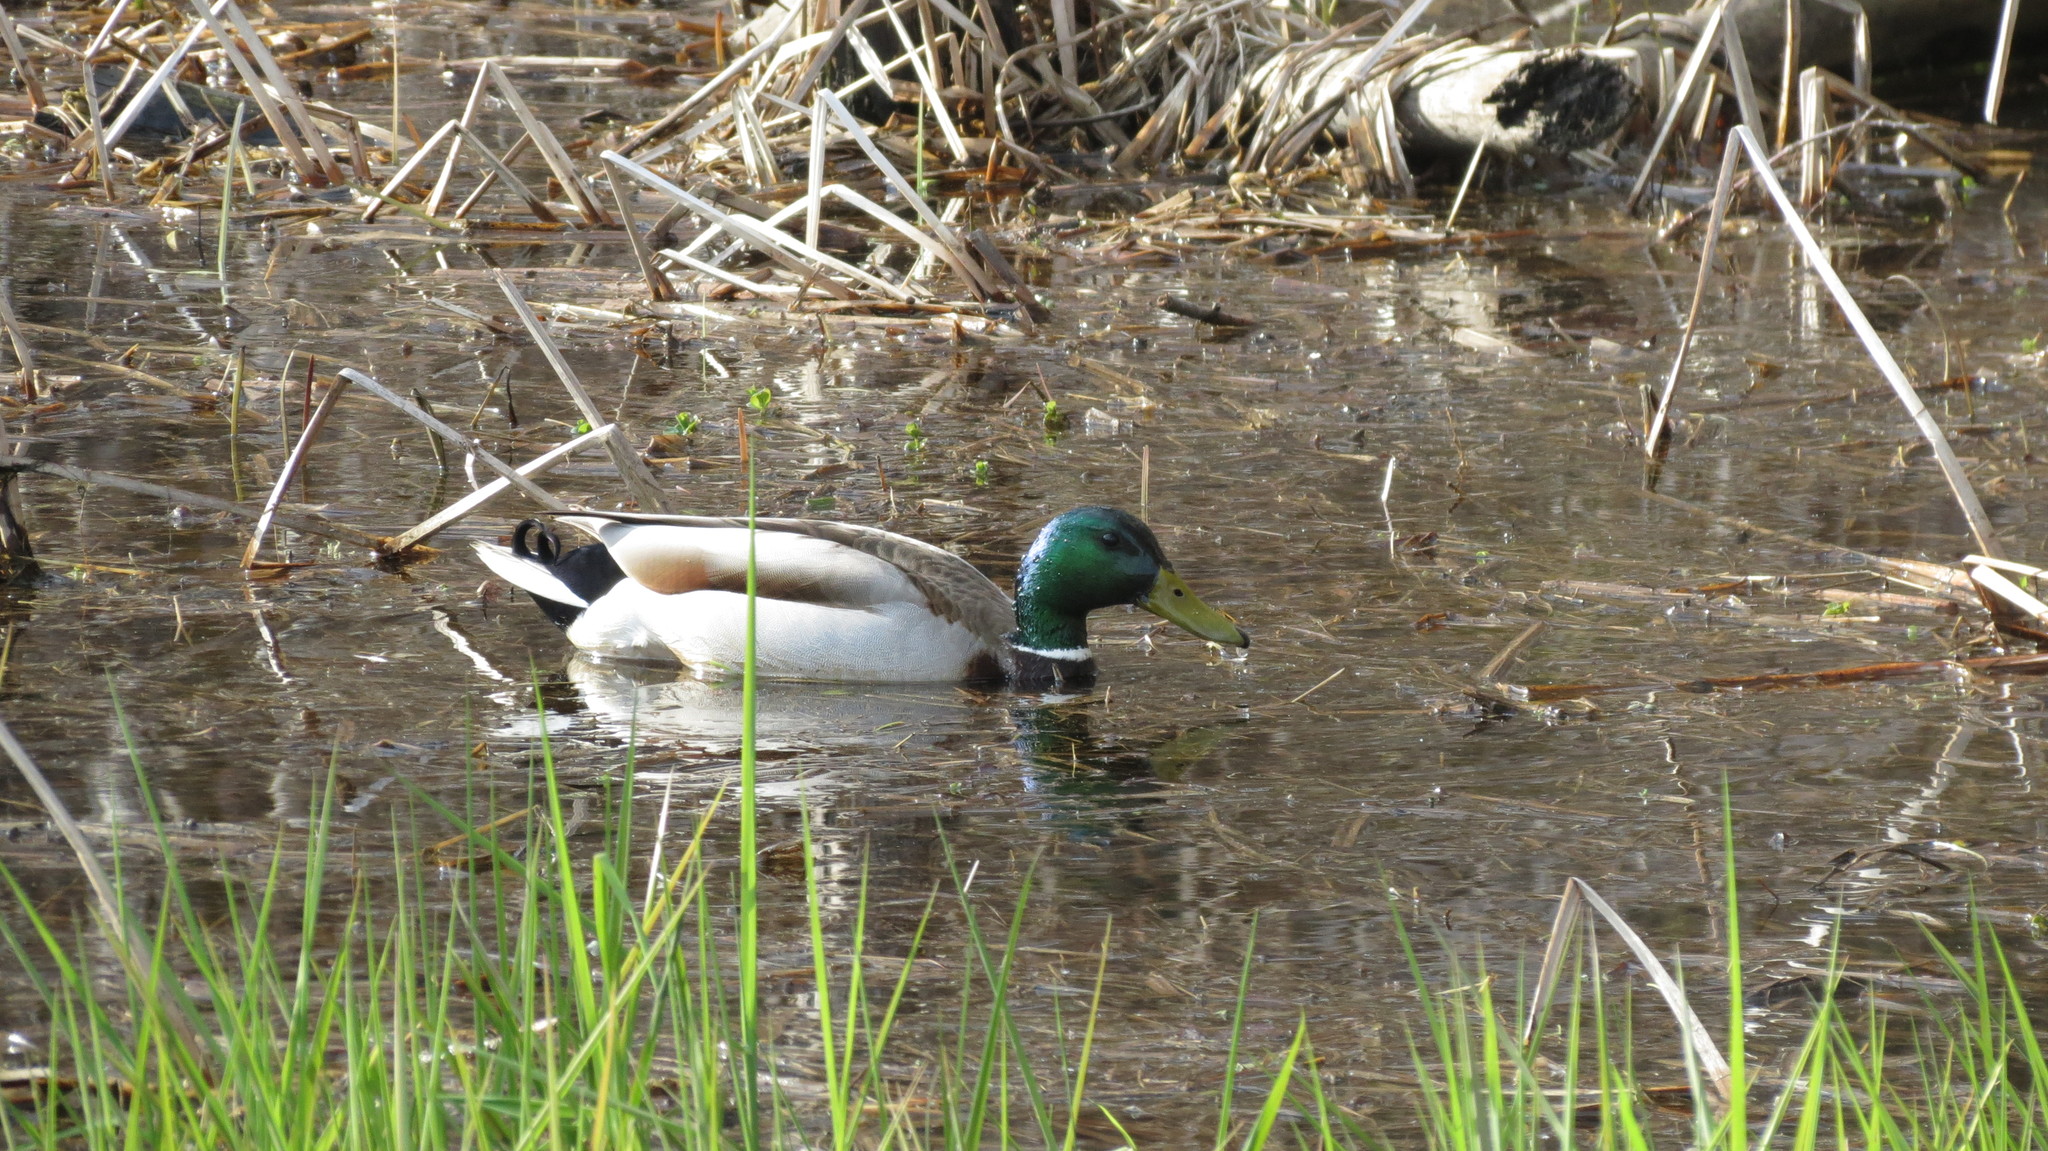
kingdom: Animalia
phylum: Chordata
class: Aves
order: Anseriformes
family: Anatidae
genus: Anas
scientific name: Anas platyrhynchos
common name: Mallard
